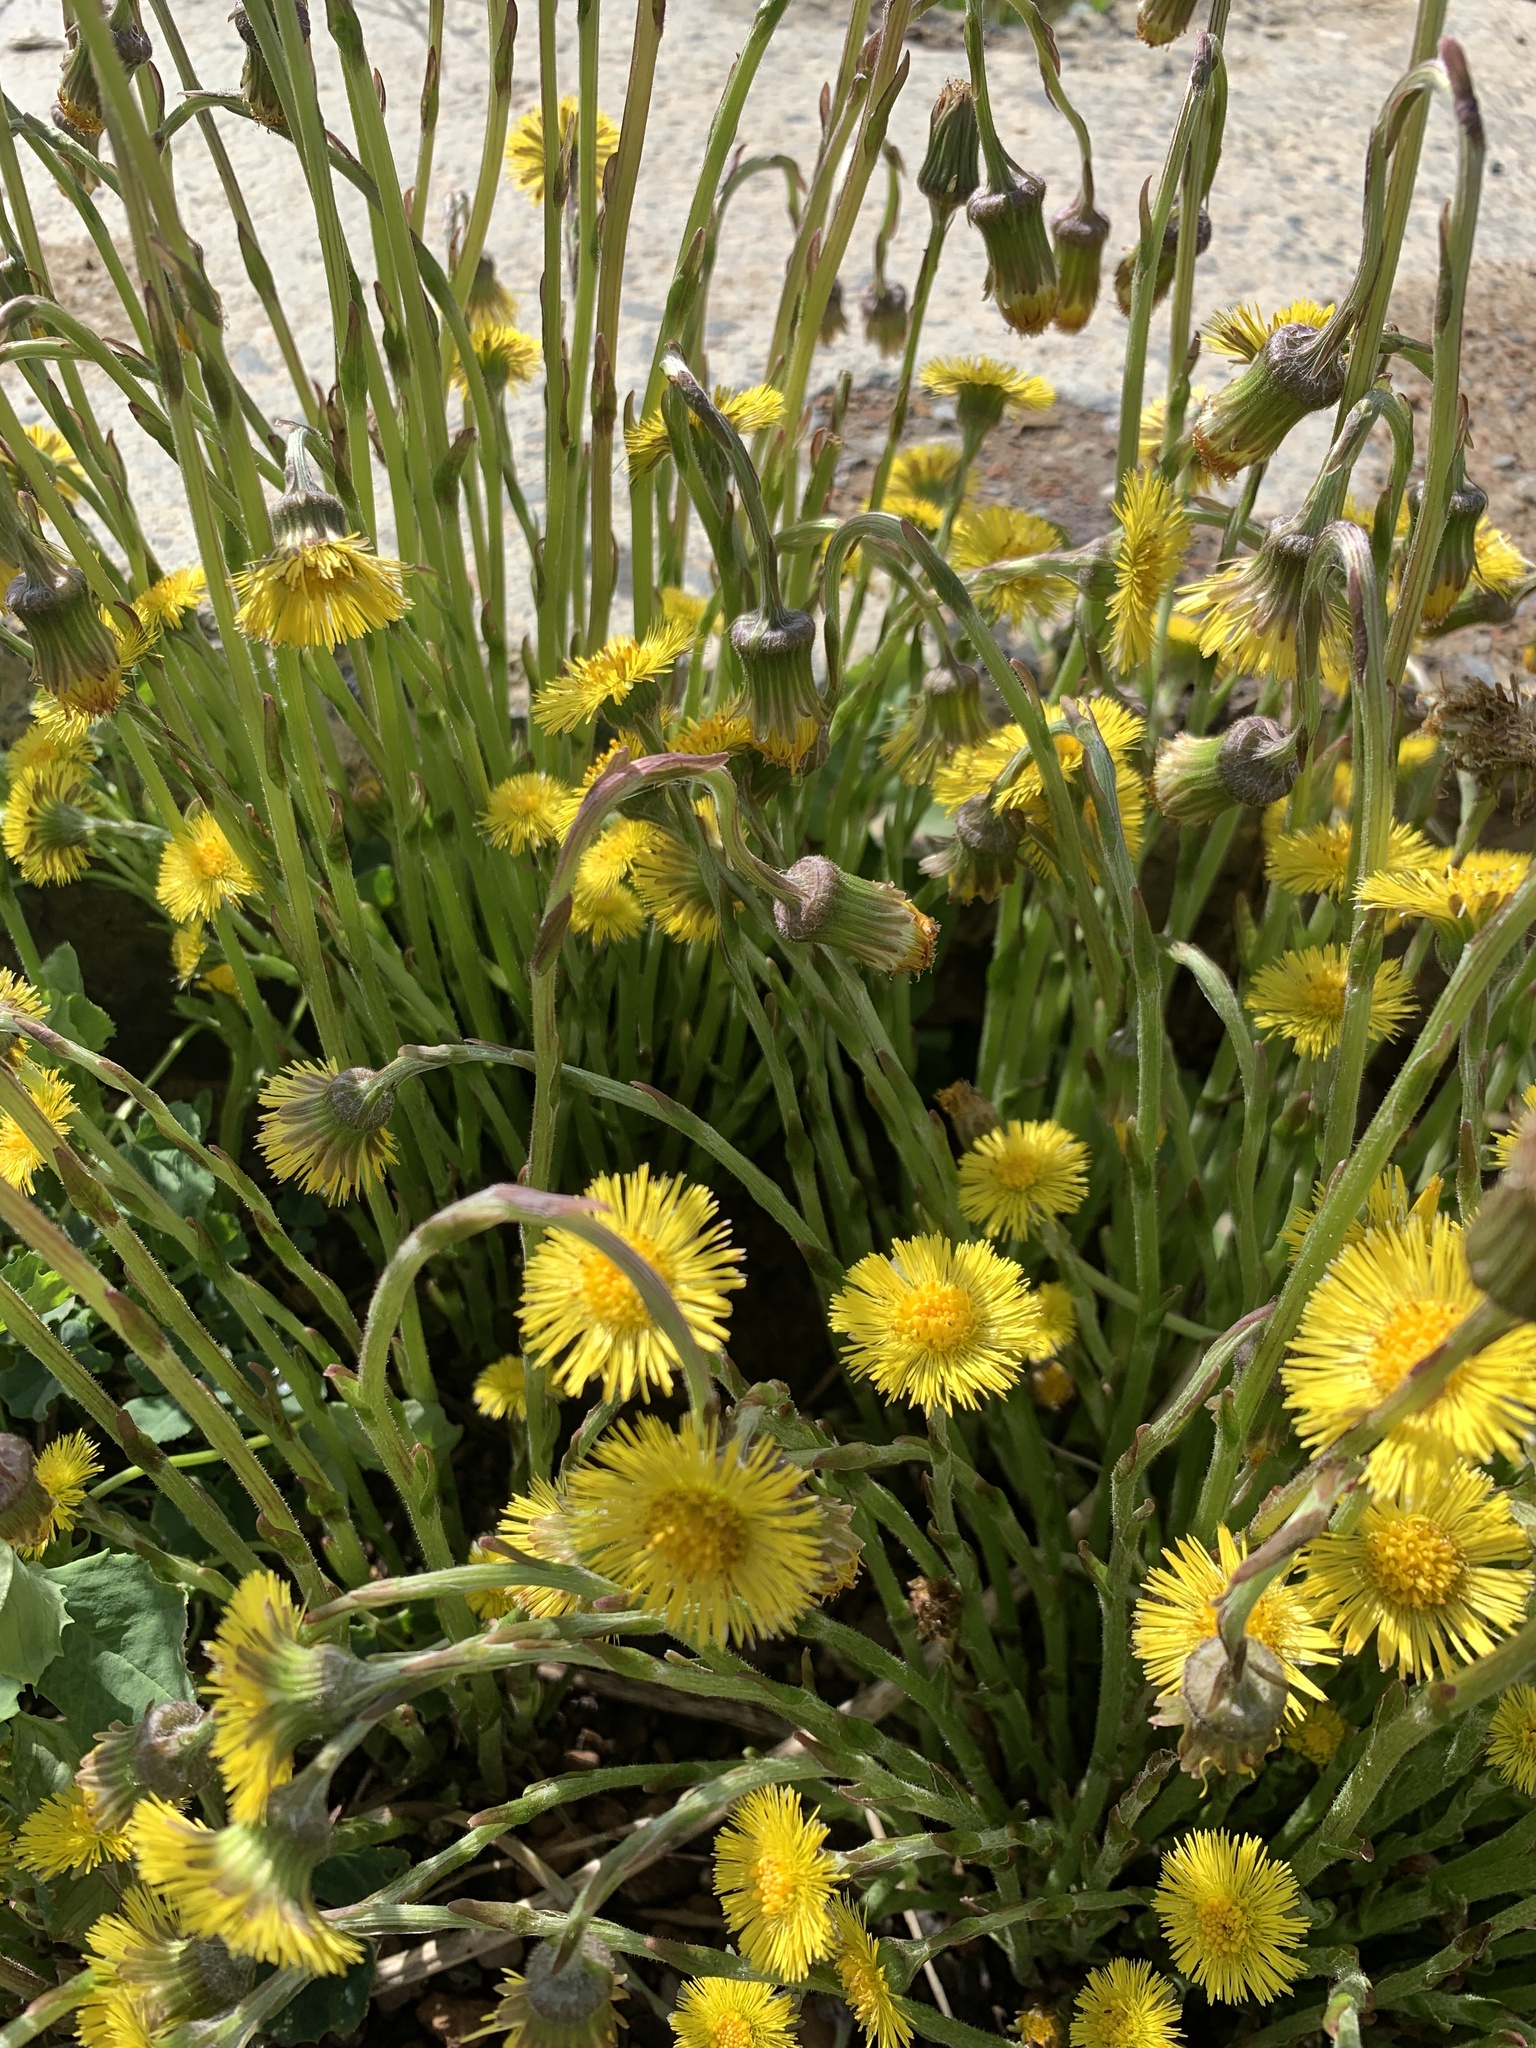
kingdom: Plantae
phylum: Tracheophyta
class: Magnoliopsida
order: Asterales
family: Asteraceae
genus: Tussilago
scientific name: Tussilago farfara
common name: Coltsfoot
